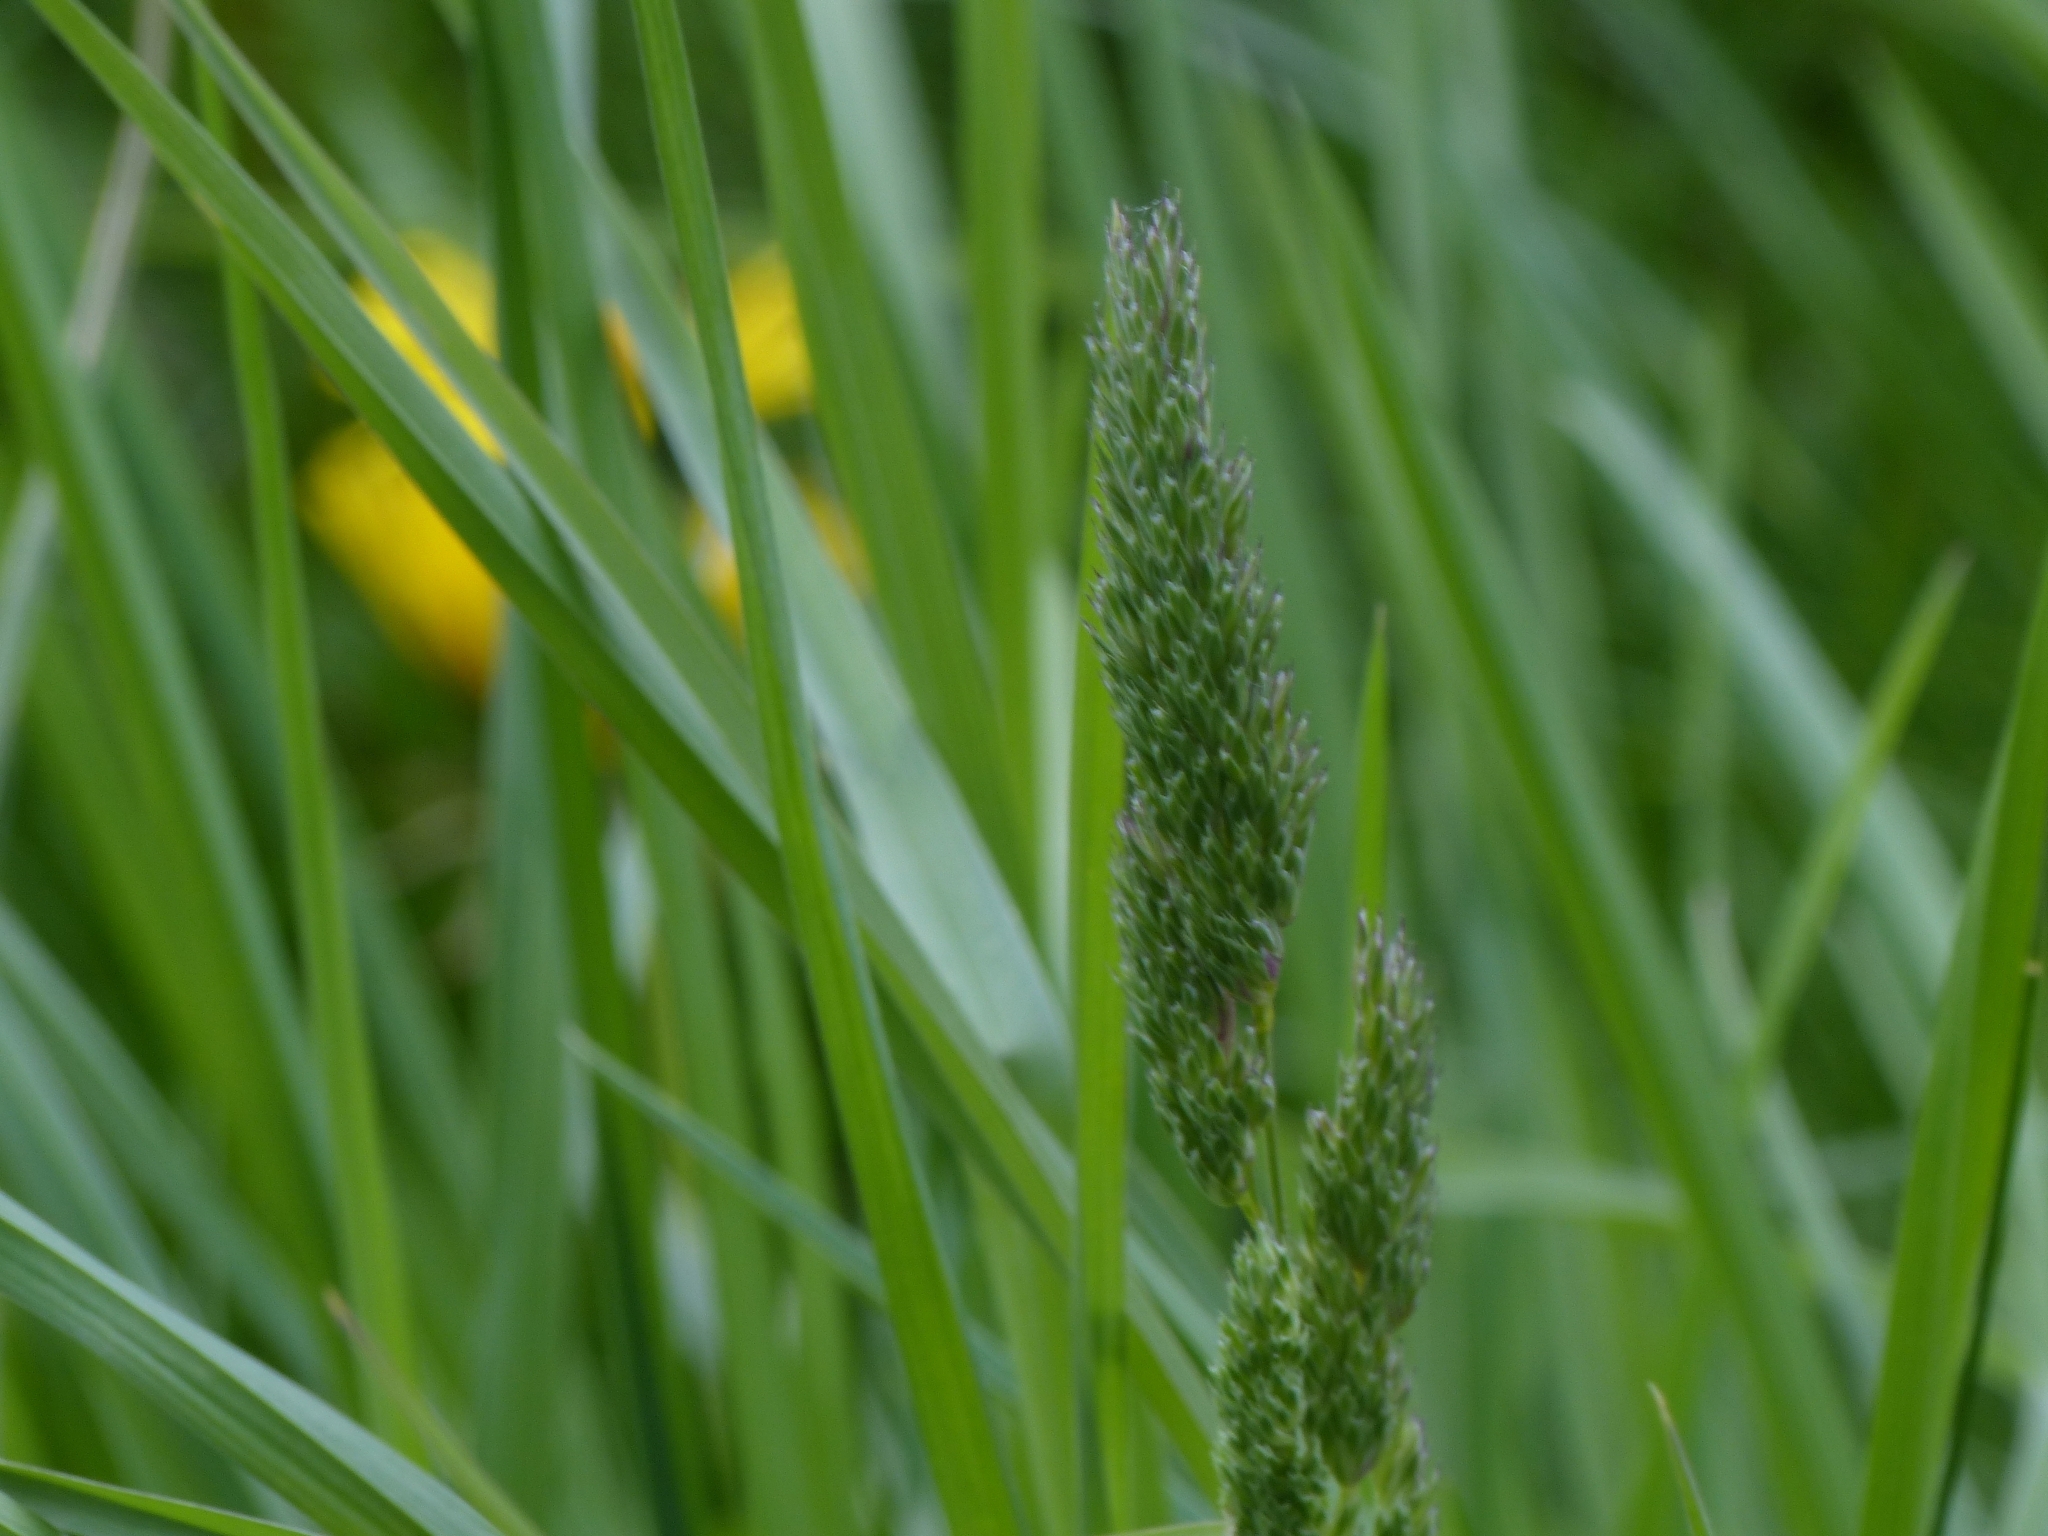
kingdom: Plantae
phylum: Tracheophyta
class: Liliopsida
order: Poales
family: Poaceae
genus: Dactylis
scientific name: Dactylis glomerata
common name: Orchardgrass
